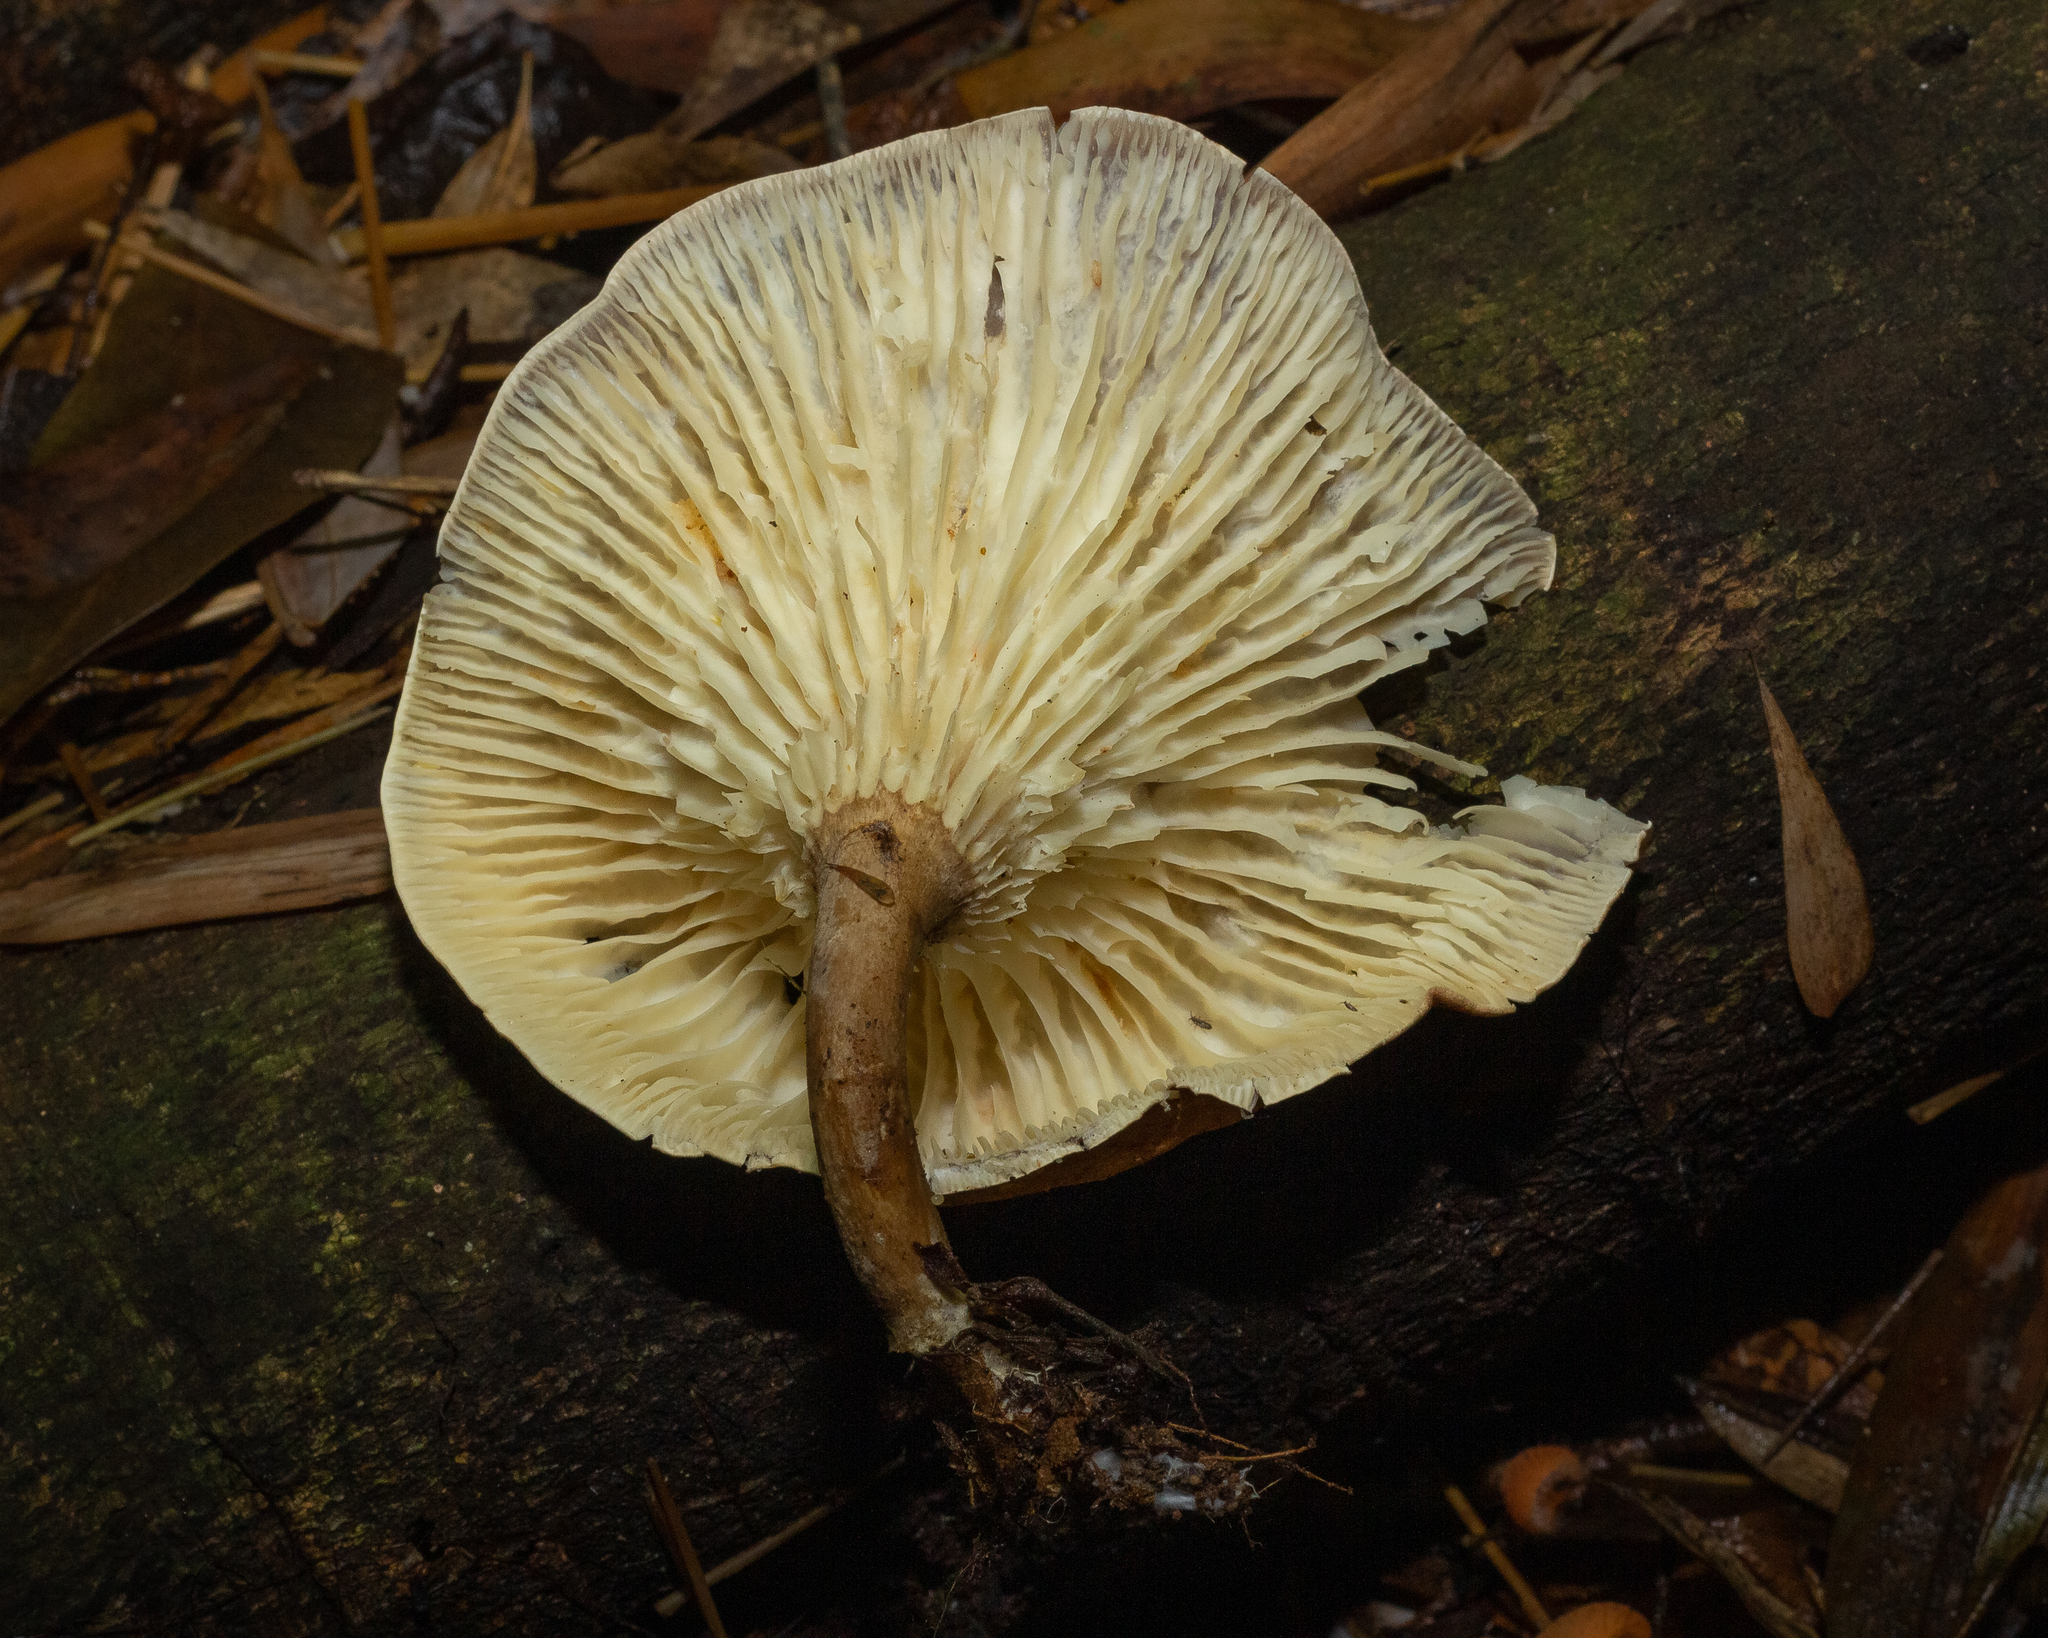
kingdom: Fungi
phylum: Basidiomycota
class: Agaricomycetes
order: Agaricales
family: Tricholomataceae
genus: Lulesia
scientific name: Lulesia densifolia
